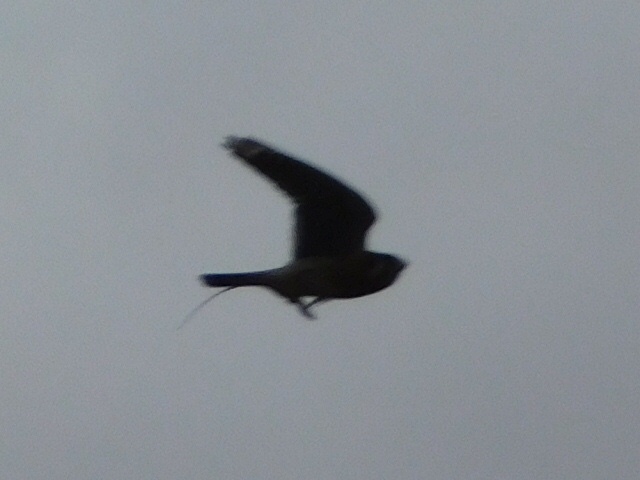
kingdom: Animalia
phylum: Chordata
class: Aves
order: Falconiformes
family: Falconidae
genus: Falco
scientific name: Falco sparverius
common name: American kestrel
